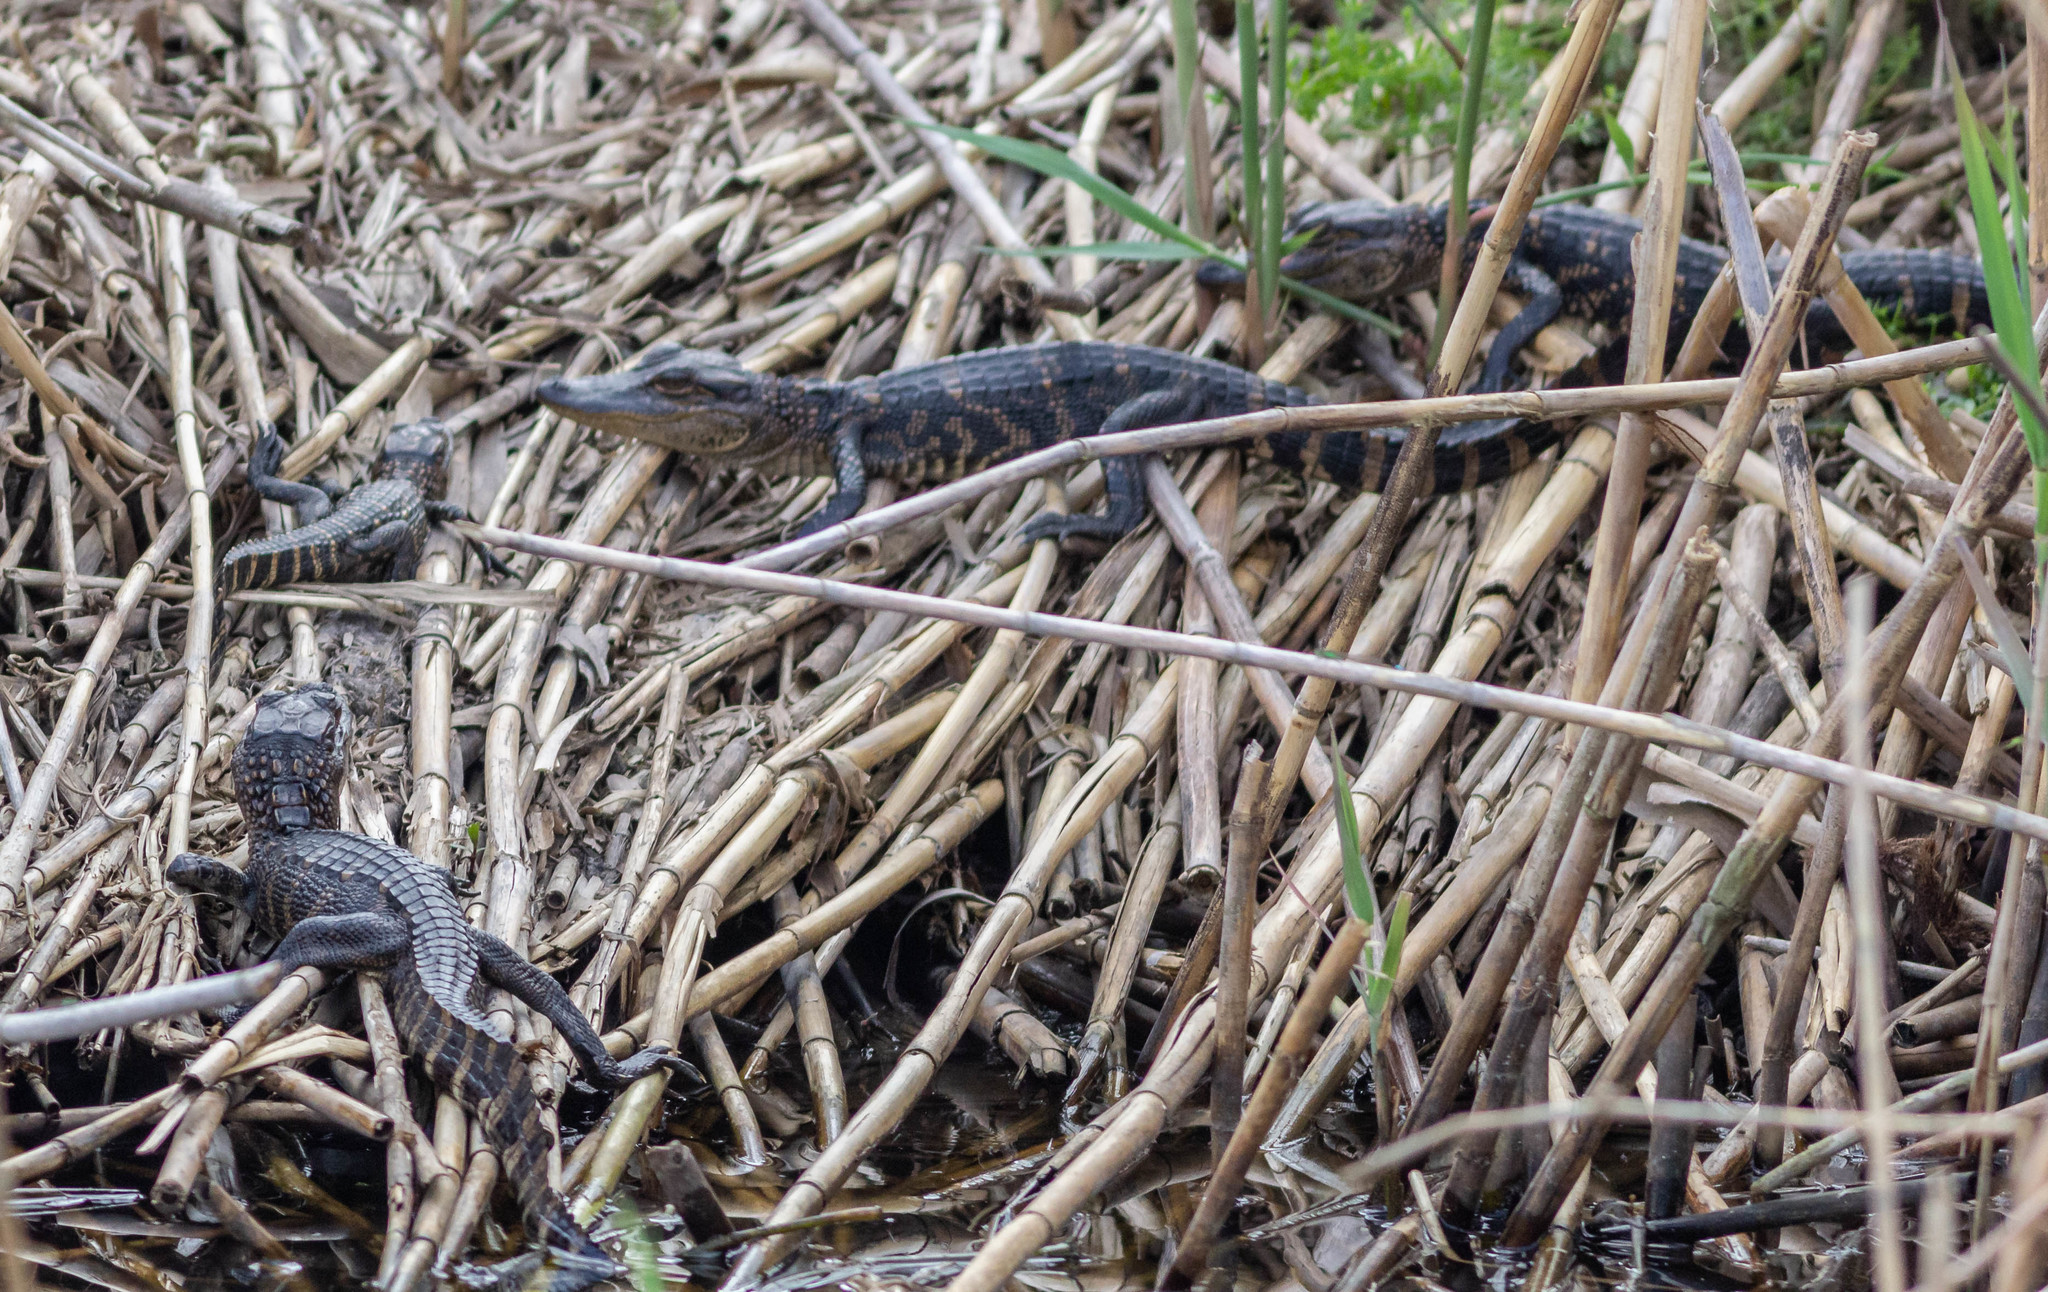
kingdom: Animalia
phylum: Chordata
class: Crocodylia
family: Alligatoridae
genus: Alligator
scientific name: Alligator mississippiensis
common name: American alligator
